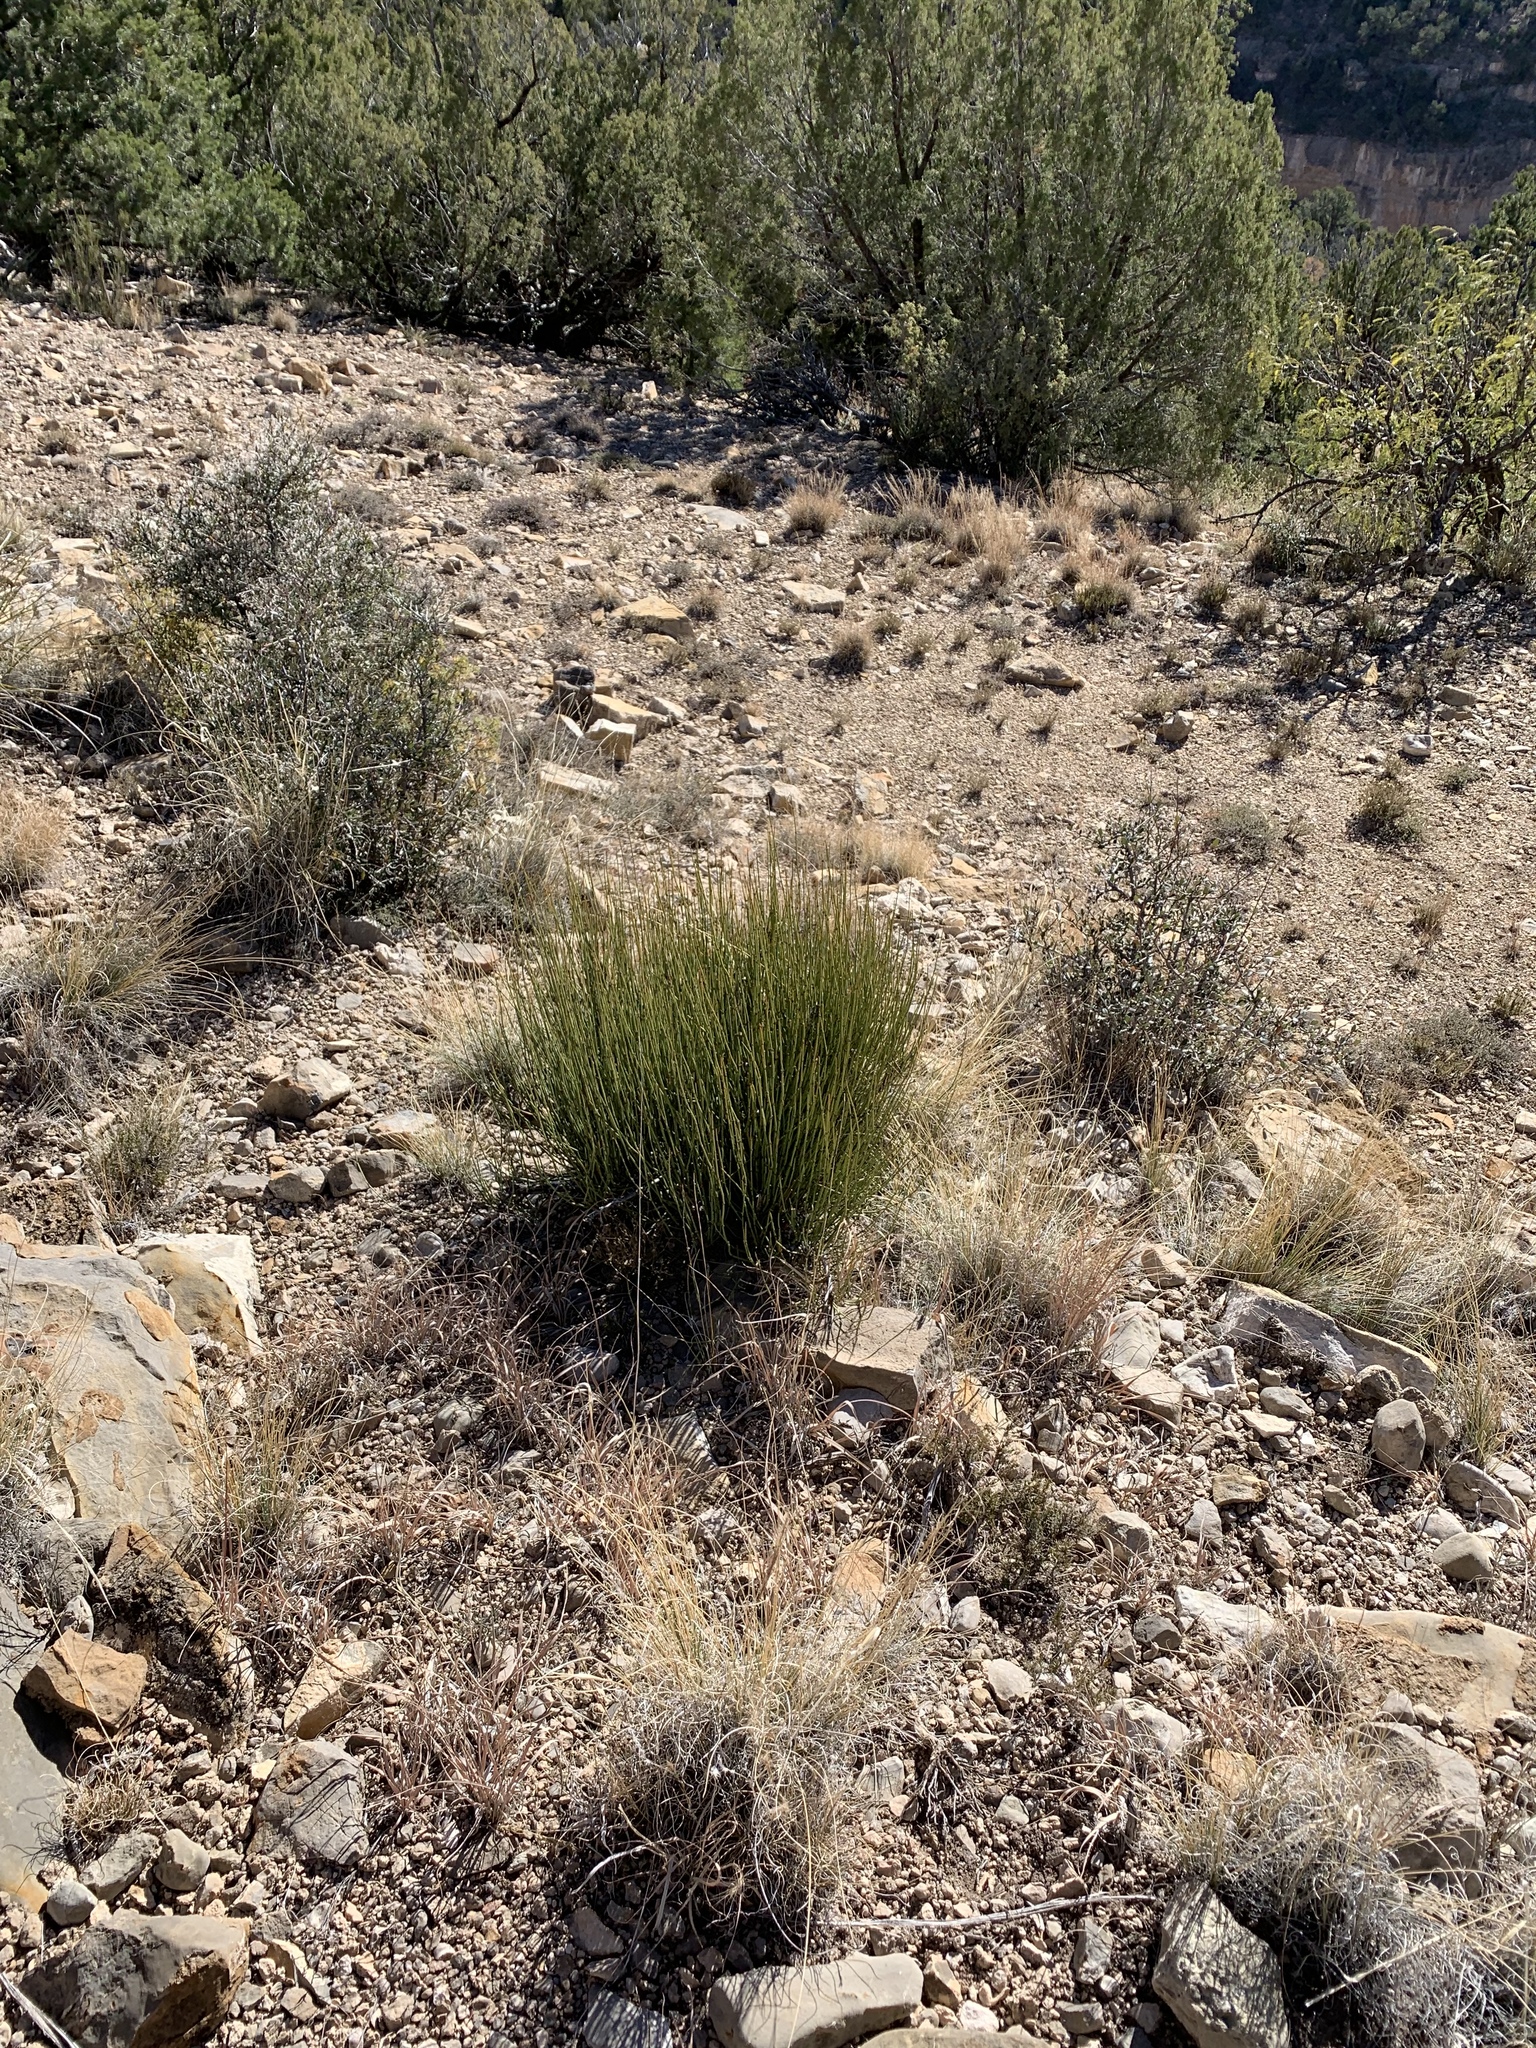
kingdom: Plantae
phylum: Tracheophyta
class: Gnetopsida
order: Ephedrales
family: Ephedraceae
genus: Ephedra
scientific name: Ephedra viridis
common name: Green ephedra
